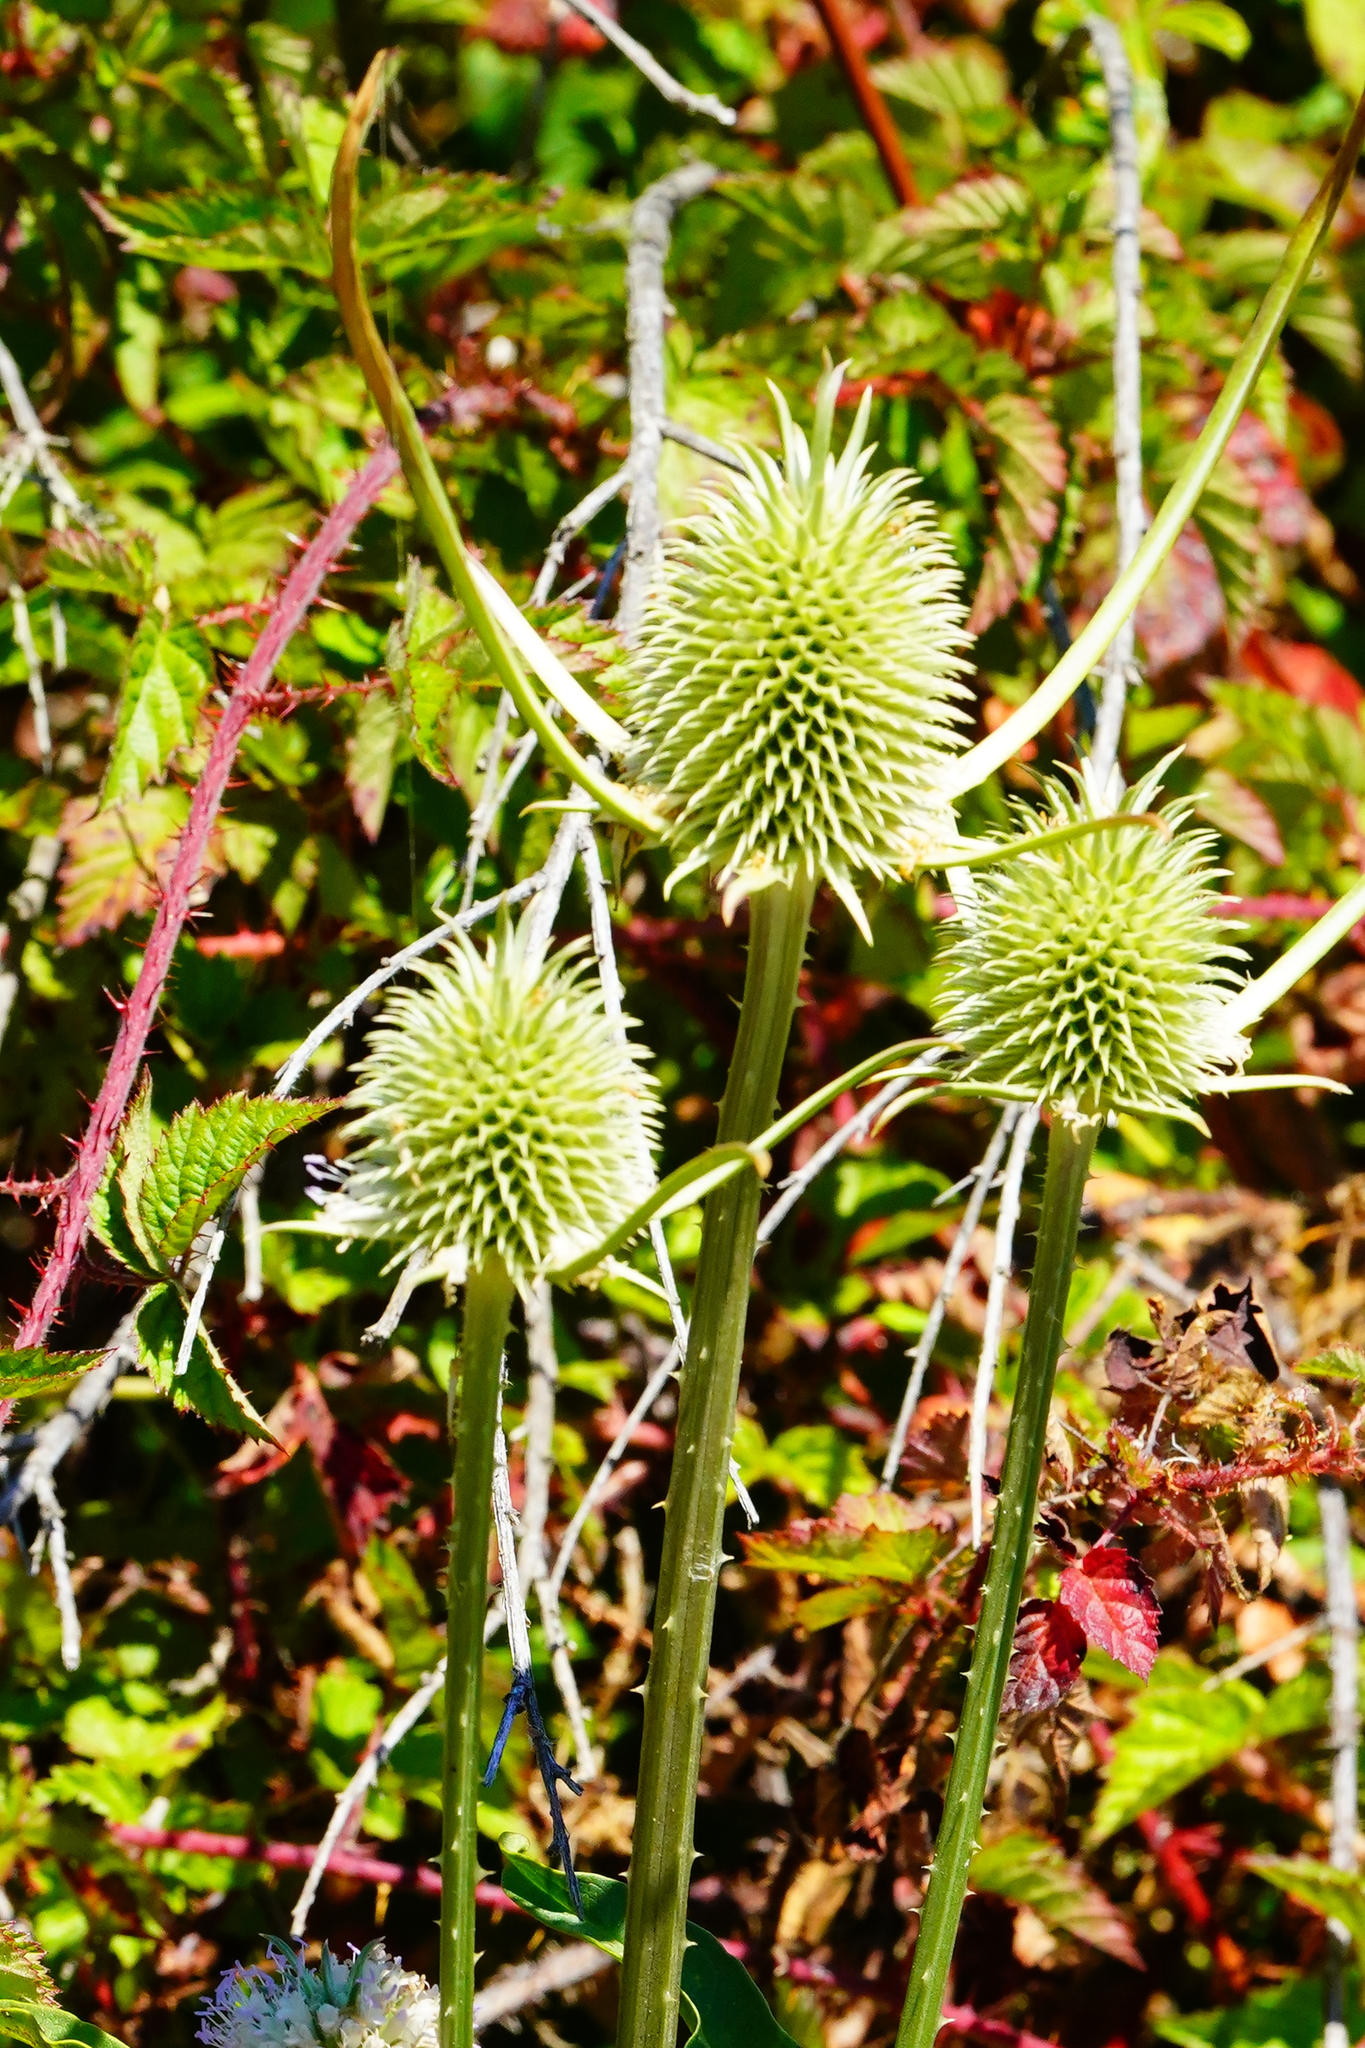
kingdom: Plantae
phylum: Tracheophyta
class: Magnoliopsida
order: Dipsacales
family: Caprifoliaceae
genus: Dipsacus
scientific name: Dipsacus sativus
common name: Fuller's teasel
